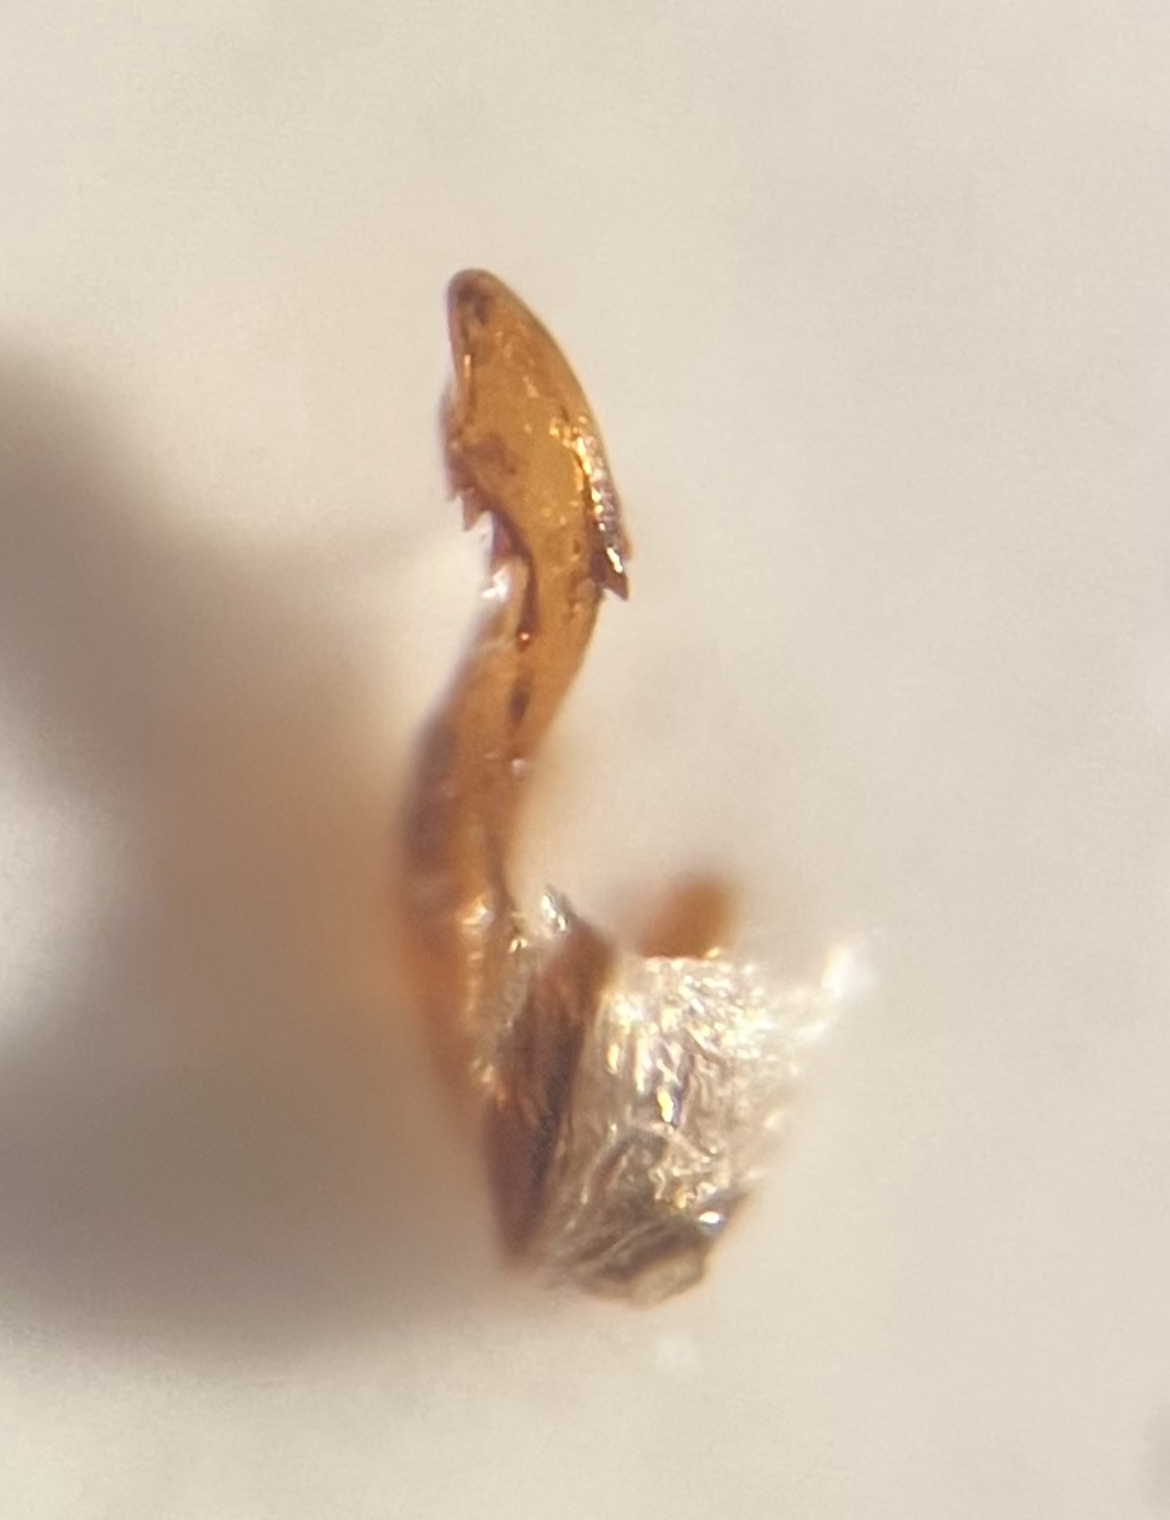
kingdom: Animalia
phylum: Arthropoda
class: Insecta
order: Hemiptera
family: Delphacidae
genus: Megadelphax
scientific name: Megadelphax sordidula
